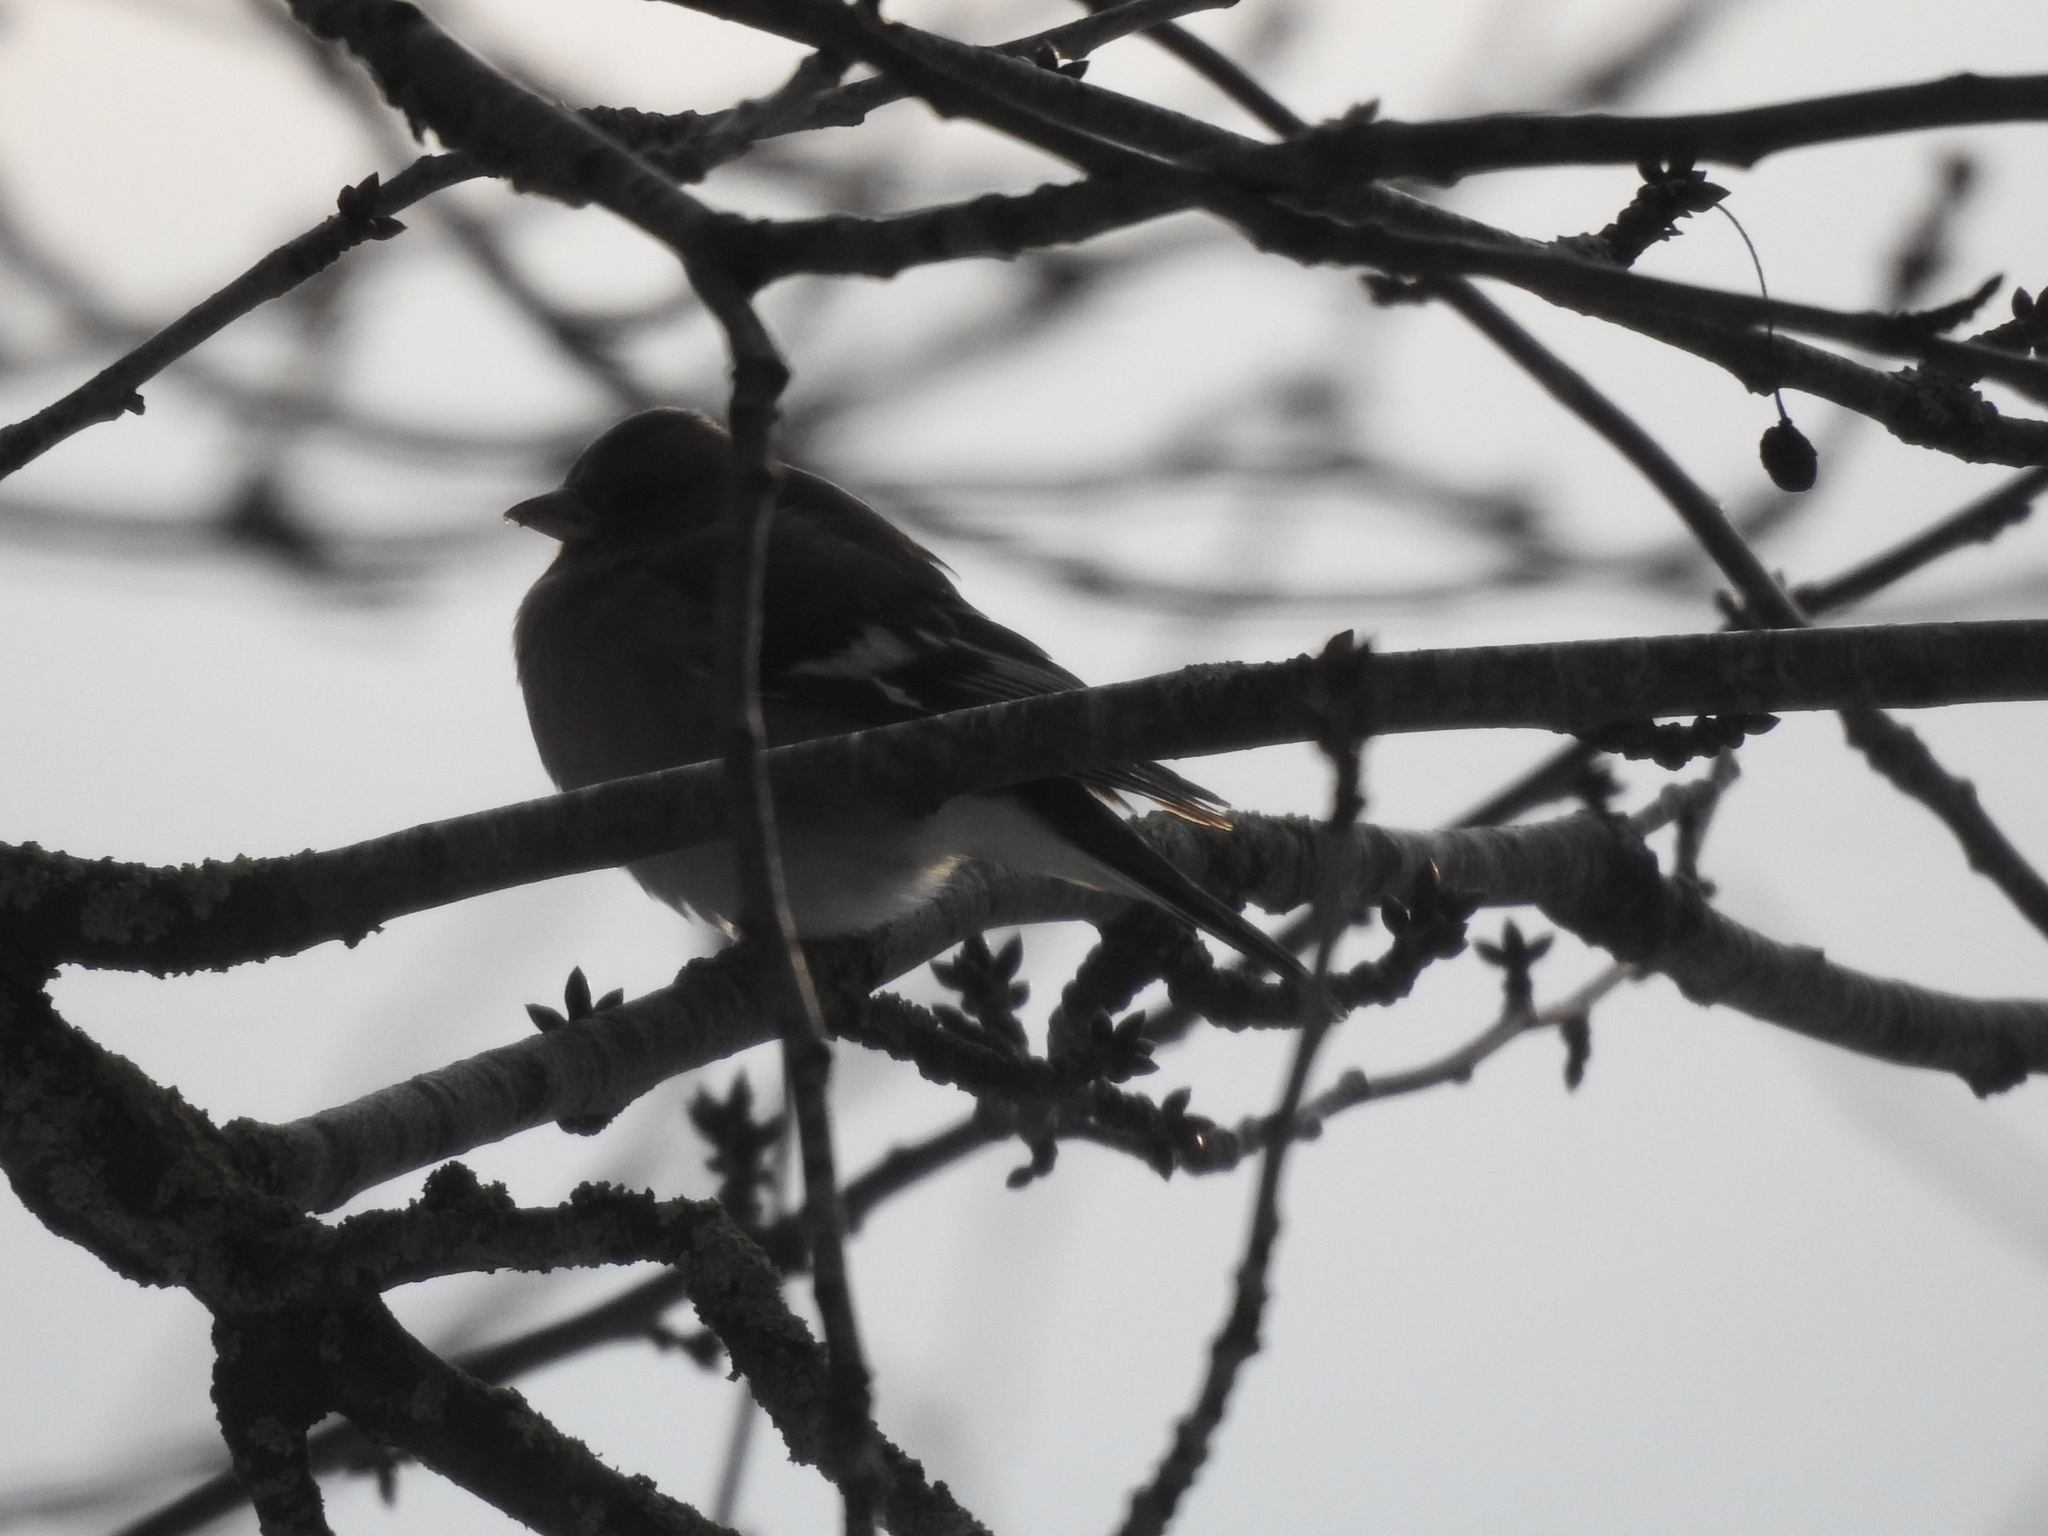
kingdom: Animalia
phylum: Chordata
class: Aves
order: Passeriformes
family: Fringillidae
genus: Fringilla
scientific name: Fringilla coelebs
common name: Common chaffinch
